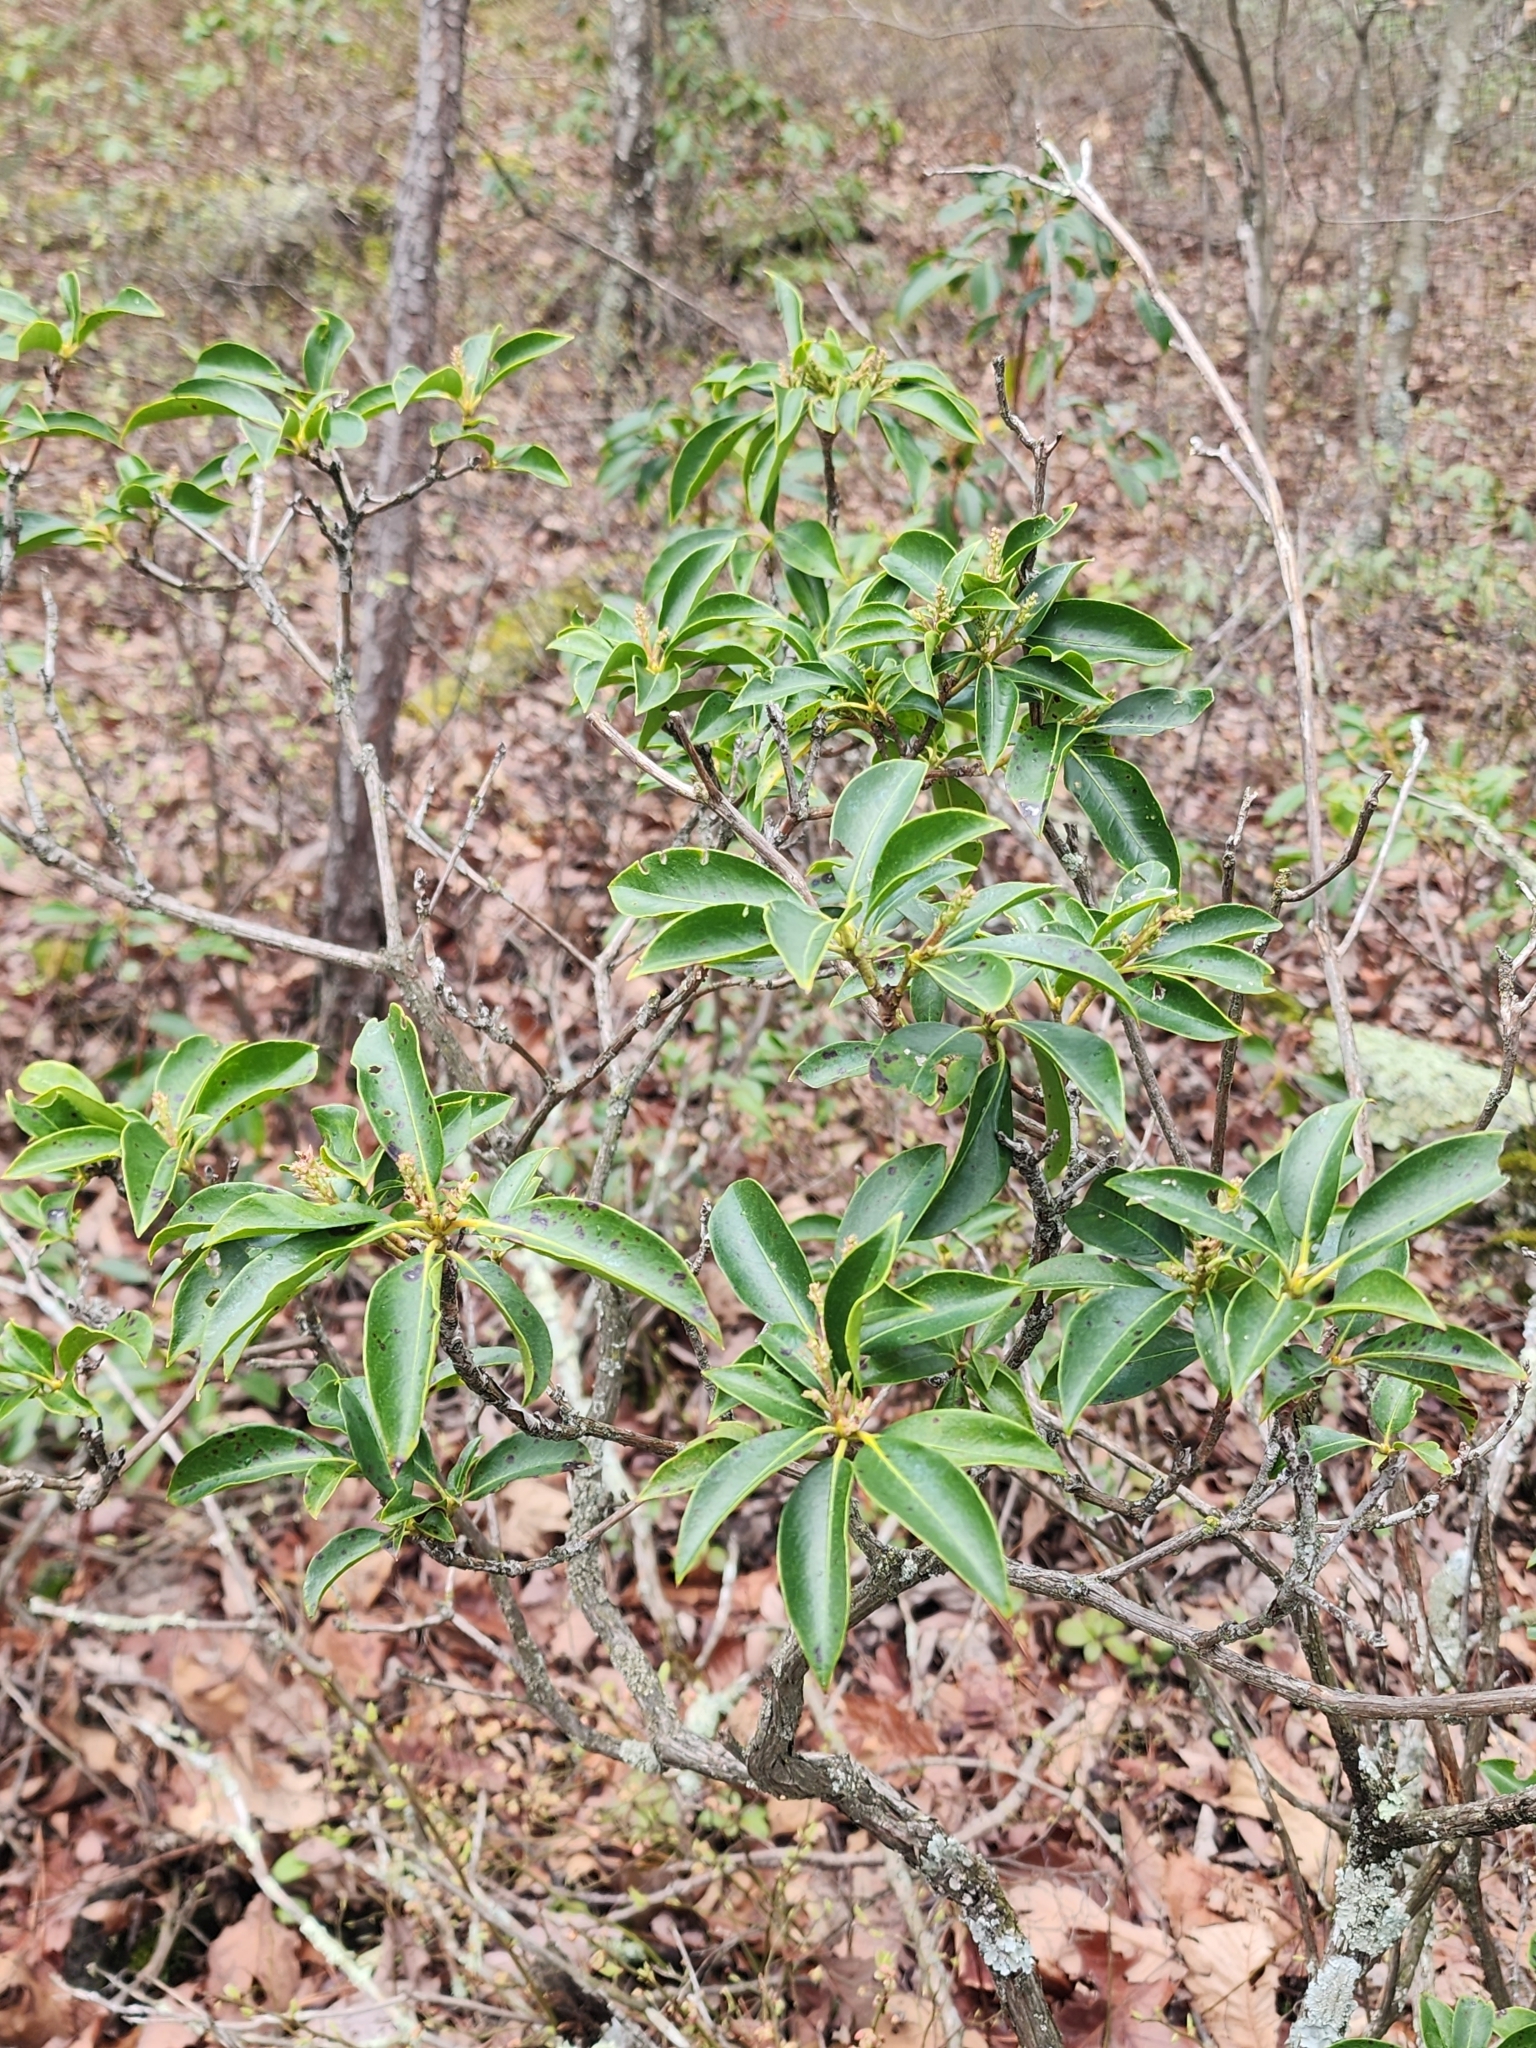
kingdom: Plantae
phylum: Tracheophyta
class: Magnoliopsida
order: Ericales
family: Ericaceae
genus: Kalmia
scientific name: Kalmia latifolia
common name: Mountain-laurel
